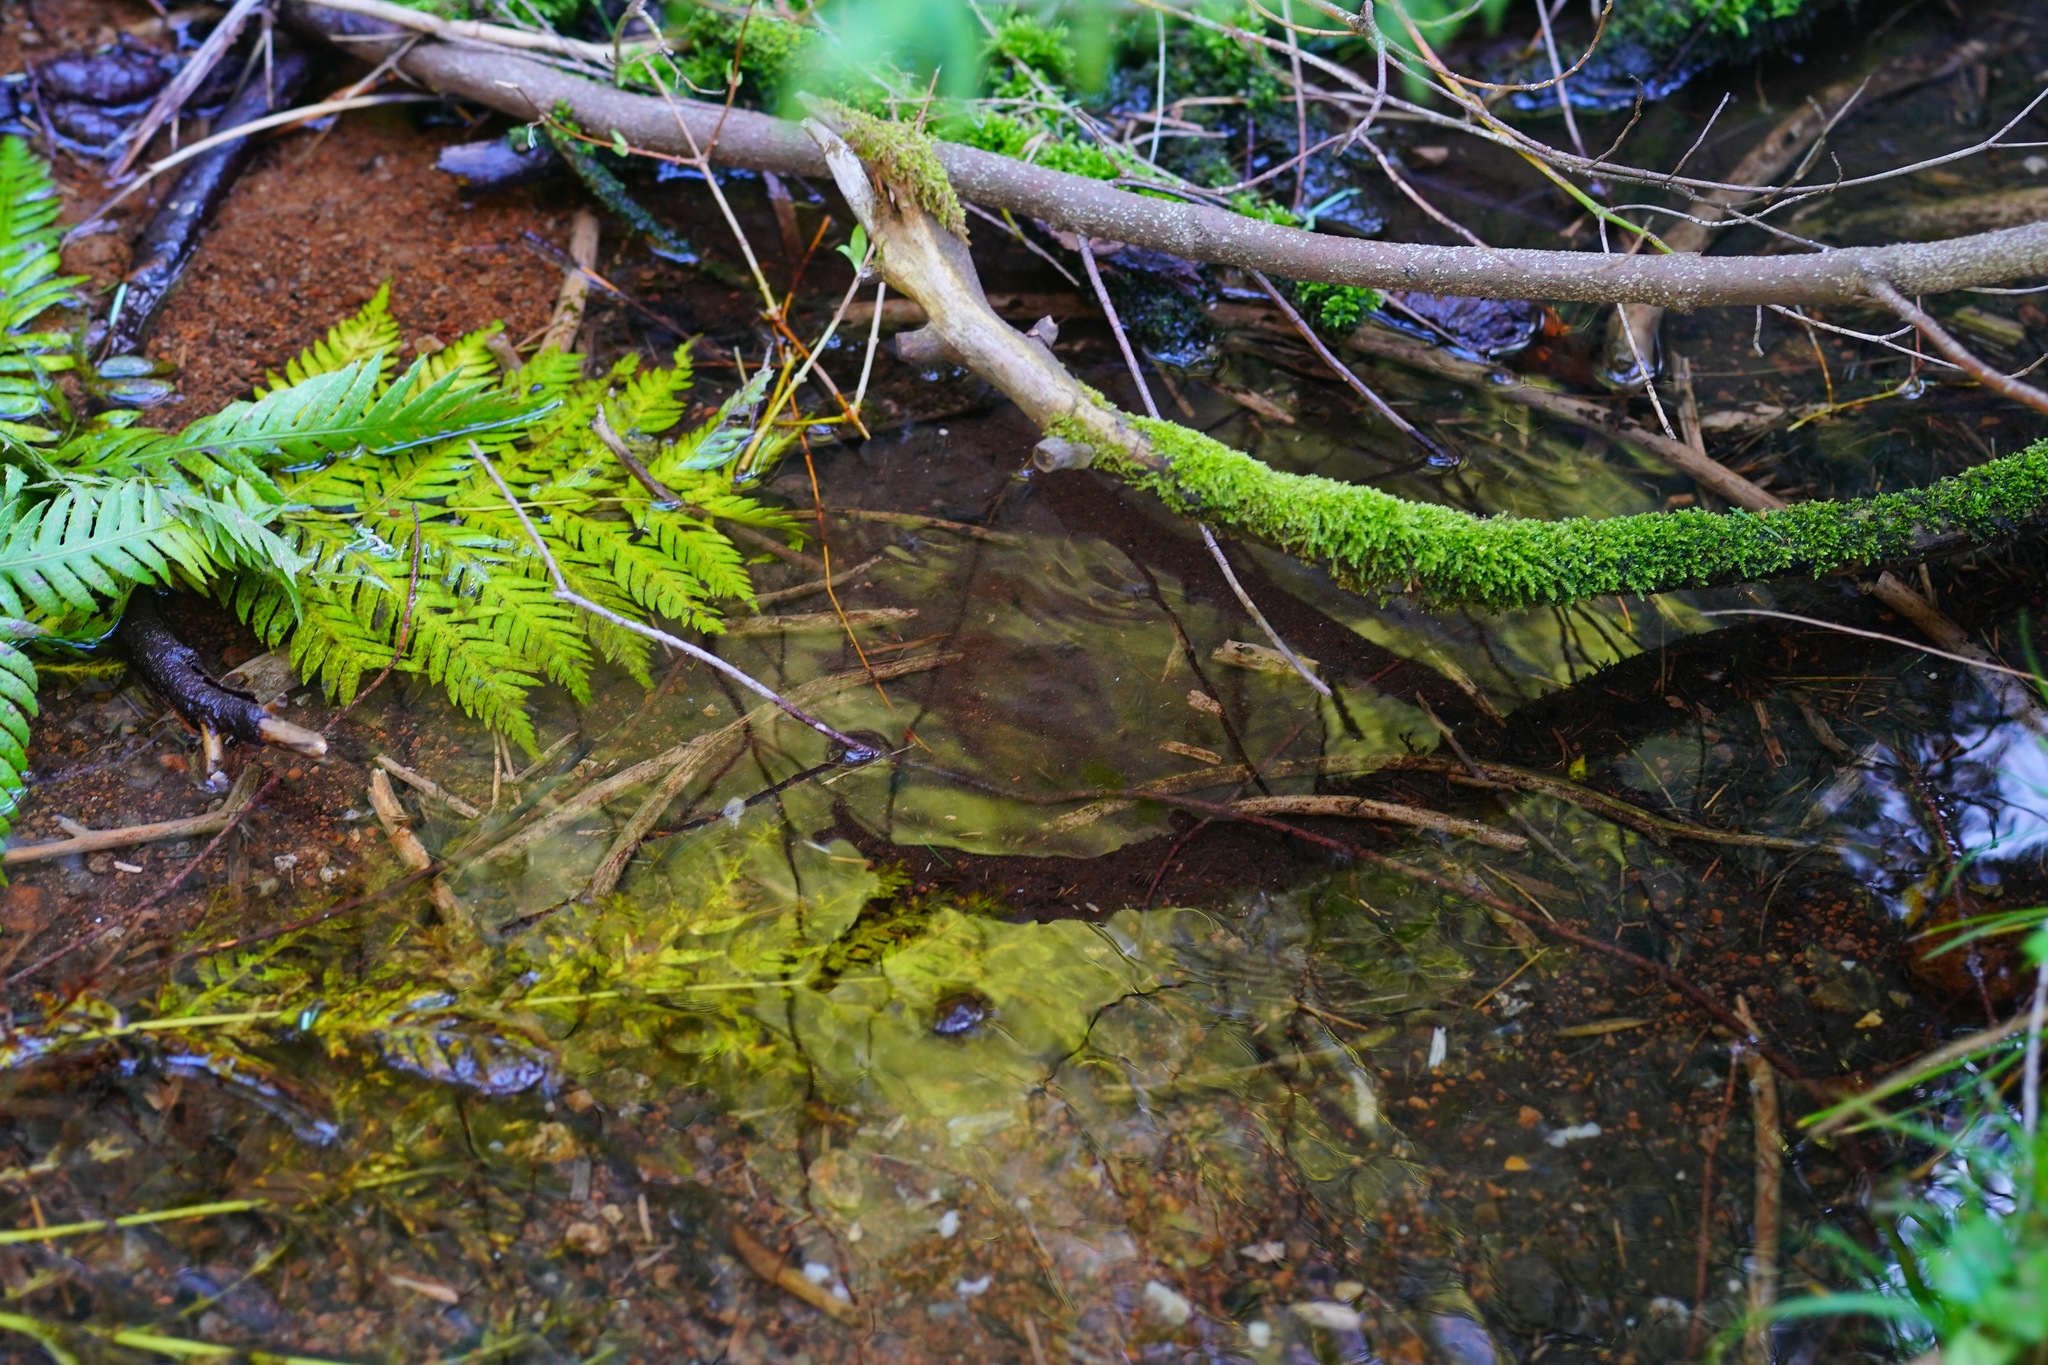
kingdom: Plantae
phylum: Tracheophyta
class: Polypodiopsida
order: Polypodiales
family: Blechnaceae
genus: Woodwardia
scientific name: Woodwardia fimbriata
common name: Giant chain fern
